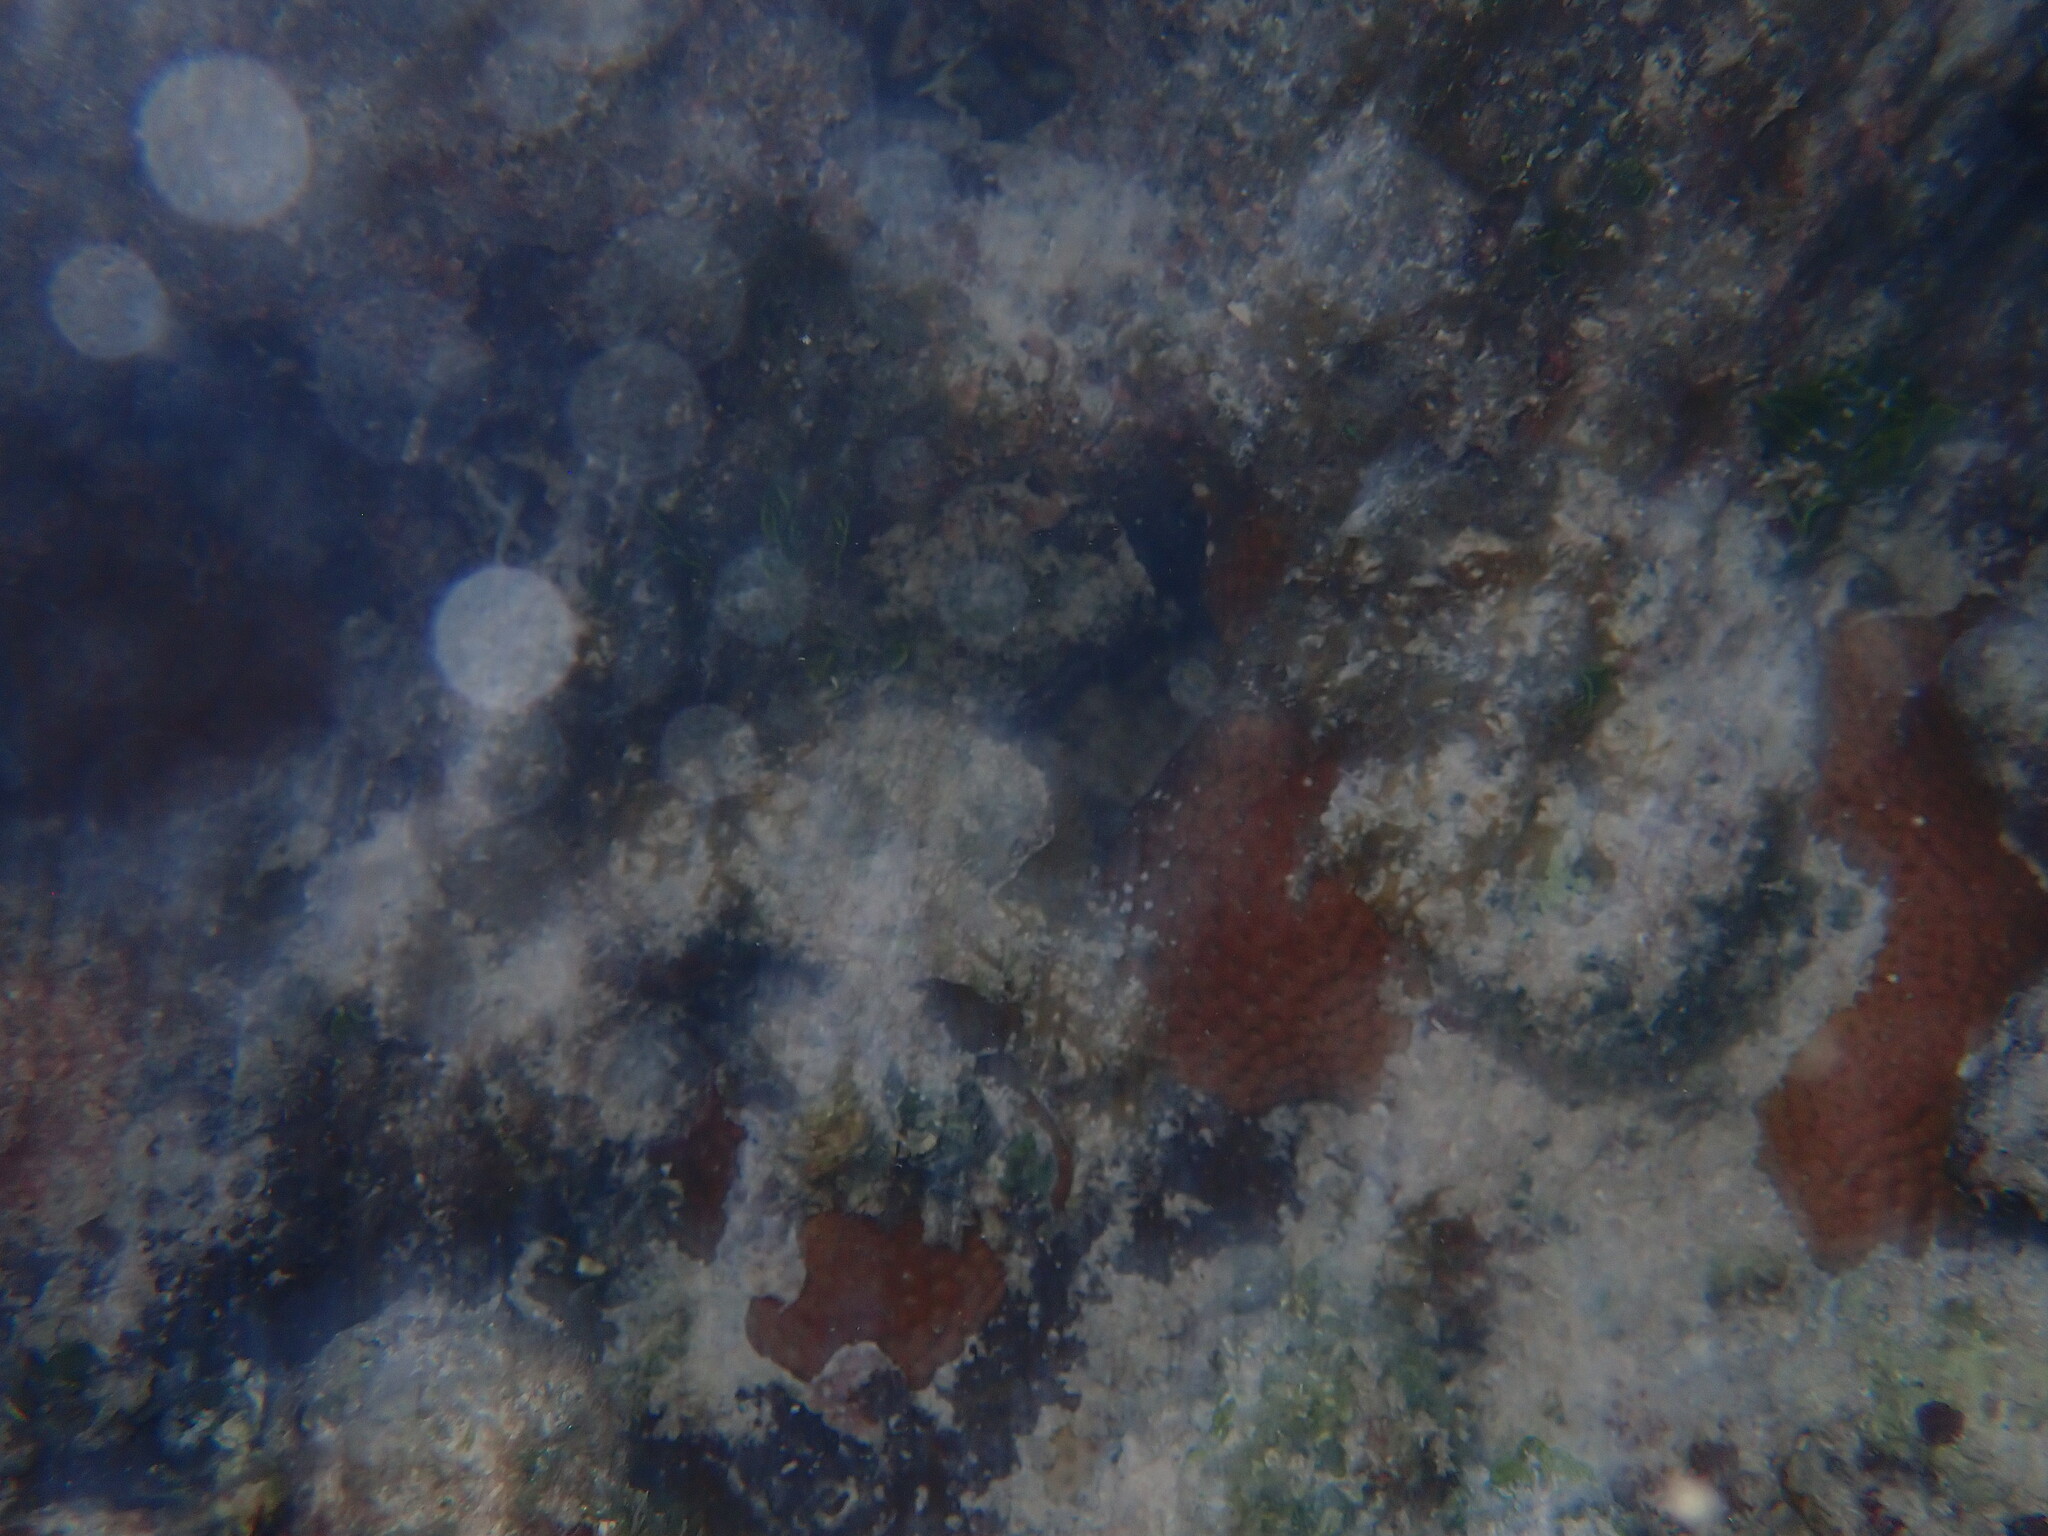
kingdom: Animalia
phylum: Cnidaria
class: Anthozoa
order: Scleractinia
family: Rhizangiidae
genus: Siderastrea
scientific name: Siderastrea radians
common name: Lesser starlet coral
